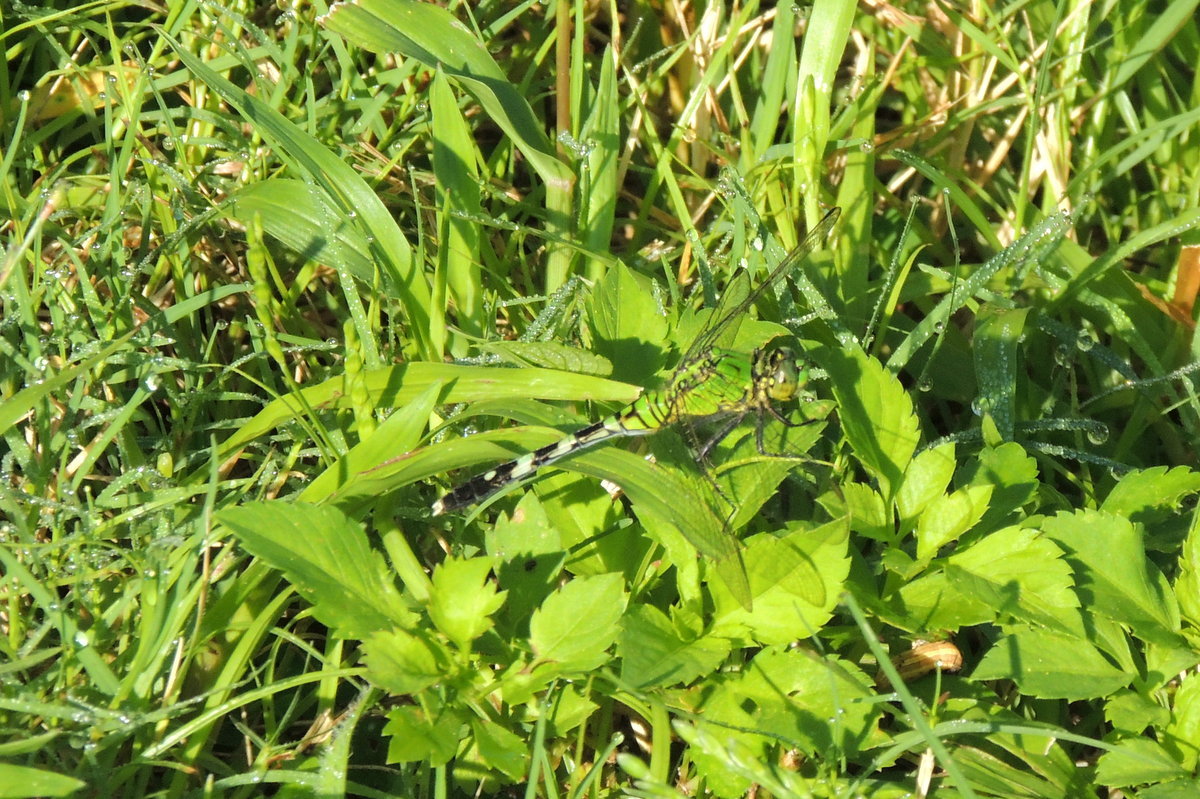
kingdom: Animalia
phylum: Arthropoda
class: Insecta
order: Odonata
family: Libellulidae
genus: Erythemis
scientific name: Erythemis simplicicollis
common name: Eastern pondhawk
